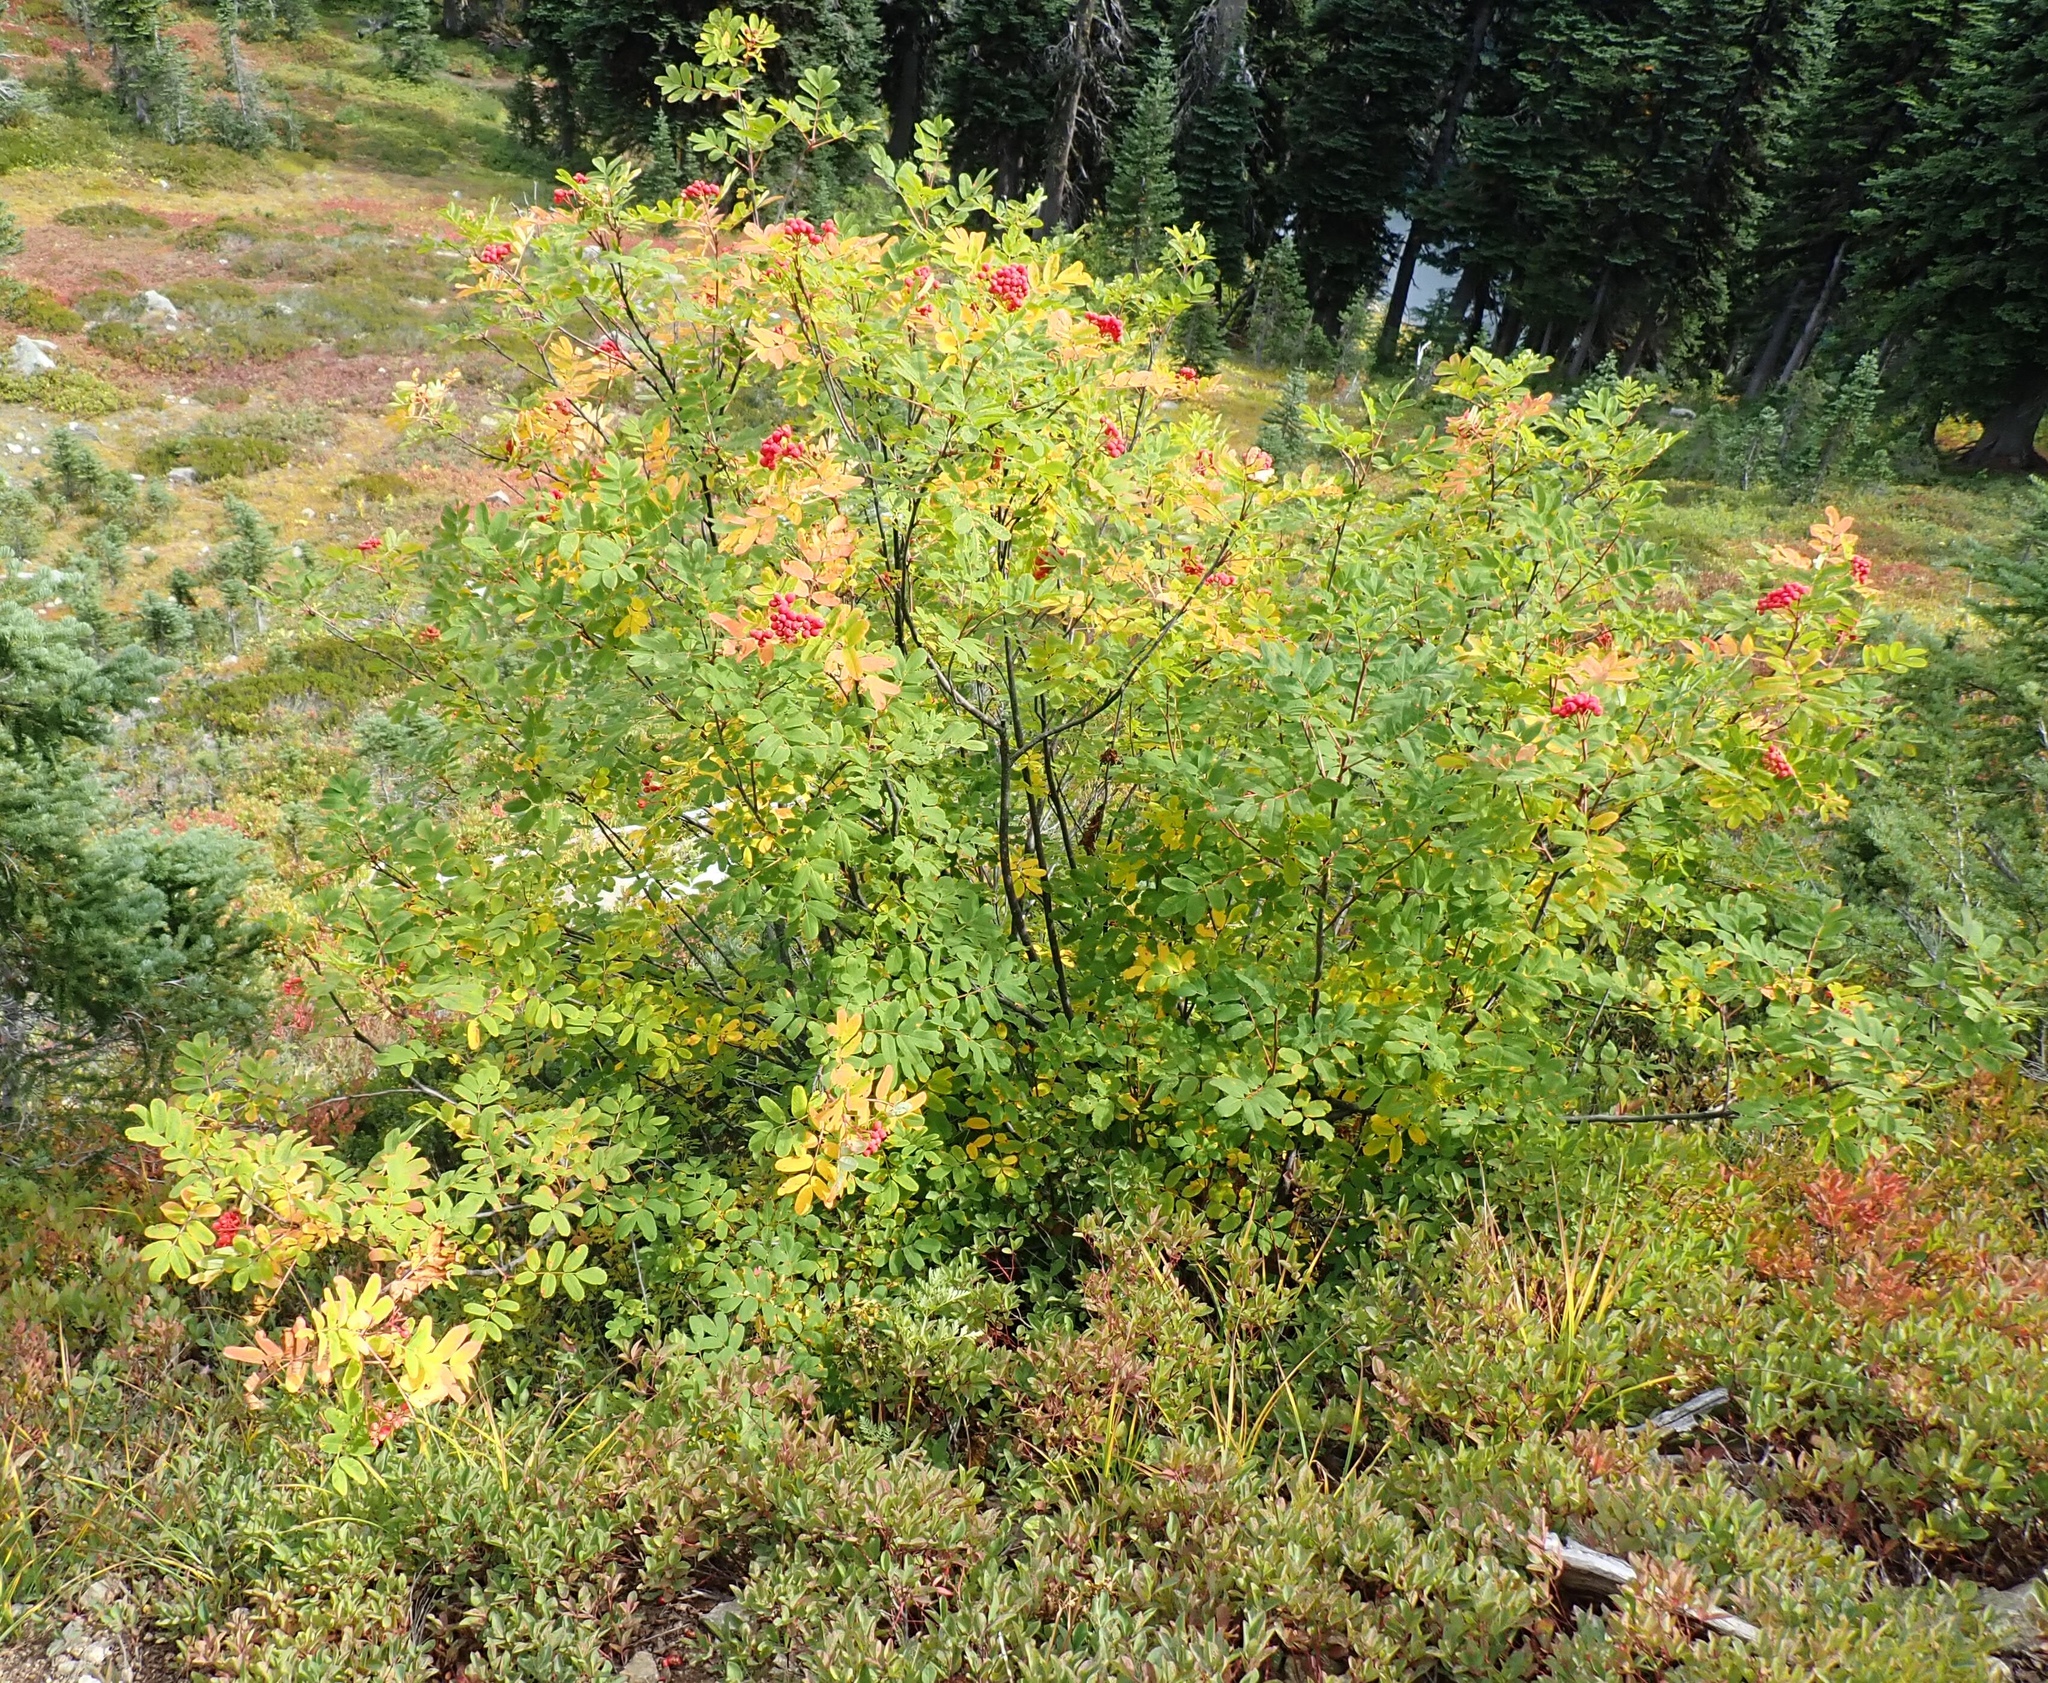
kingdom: Plantae
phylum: Tracheophyta
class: Magnoliopsida
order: Rosales
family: Rosaceae
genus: Sorbus
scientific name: Sorbus sitchensis
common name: Sitka mountain-ash
